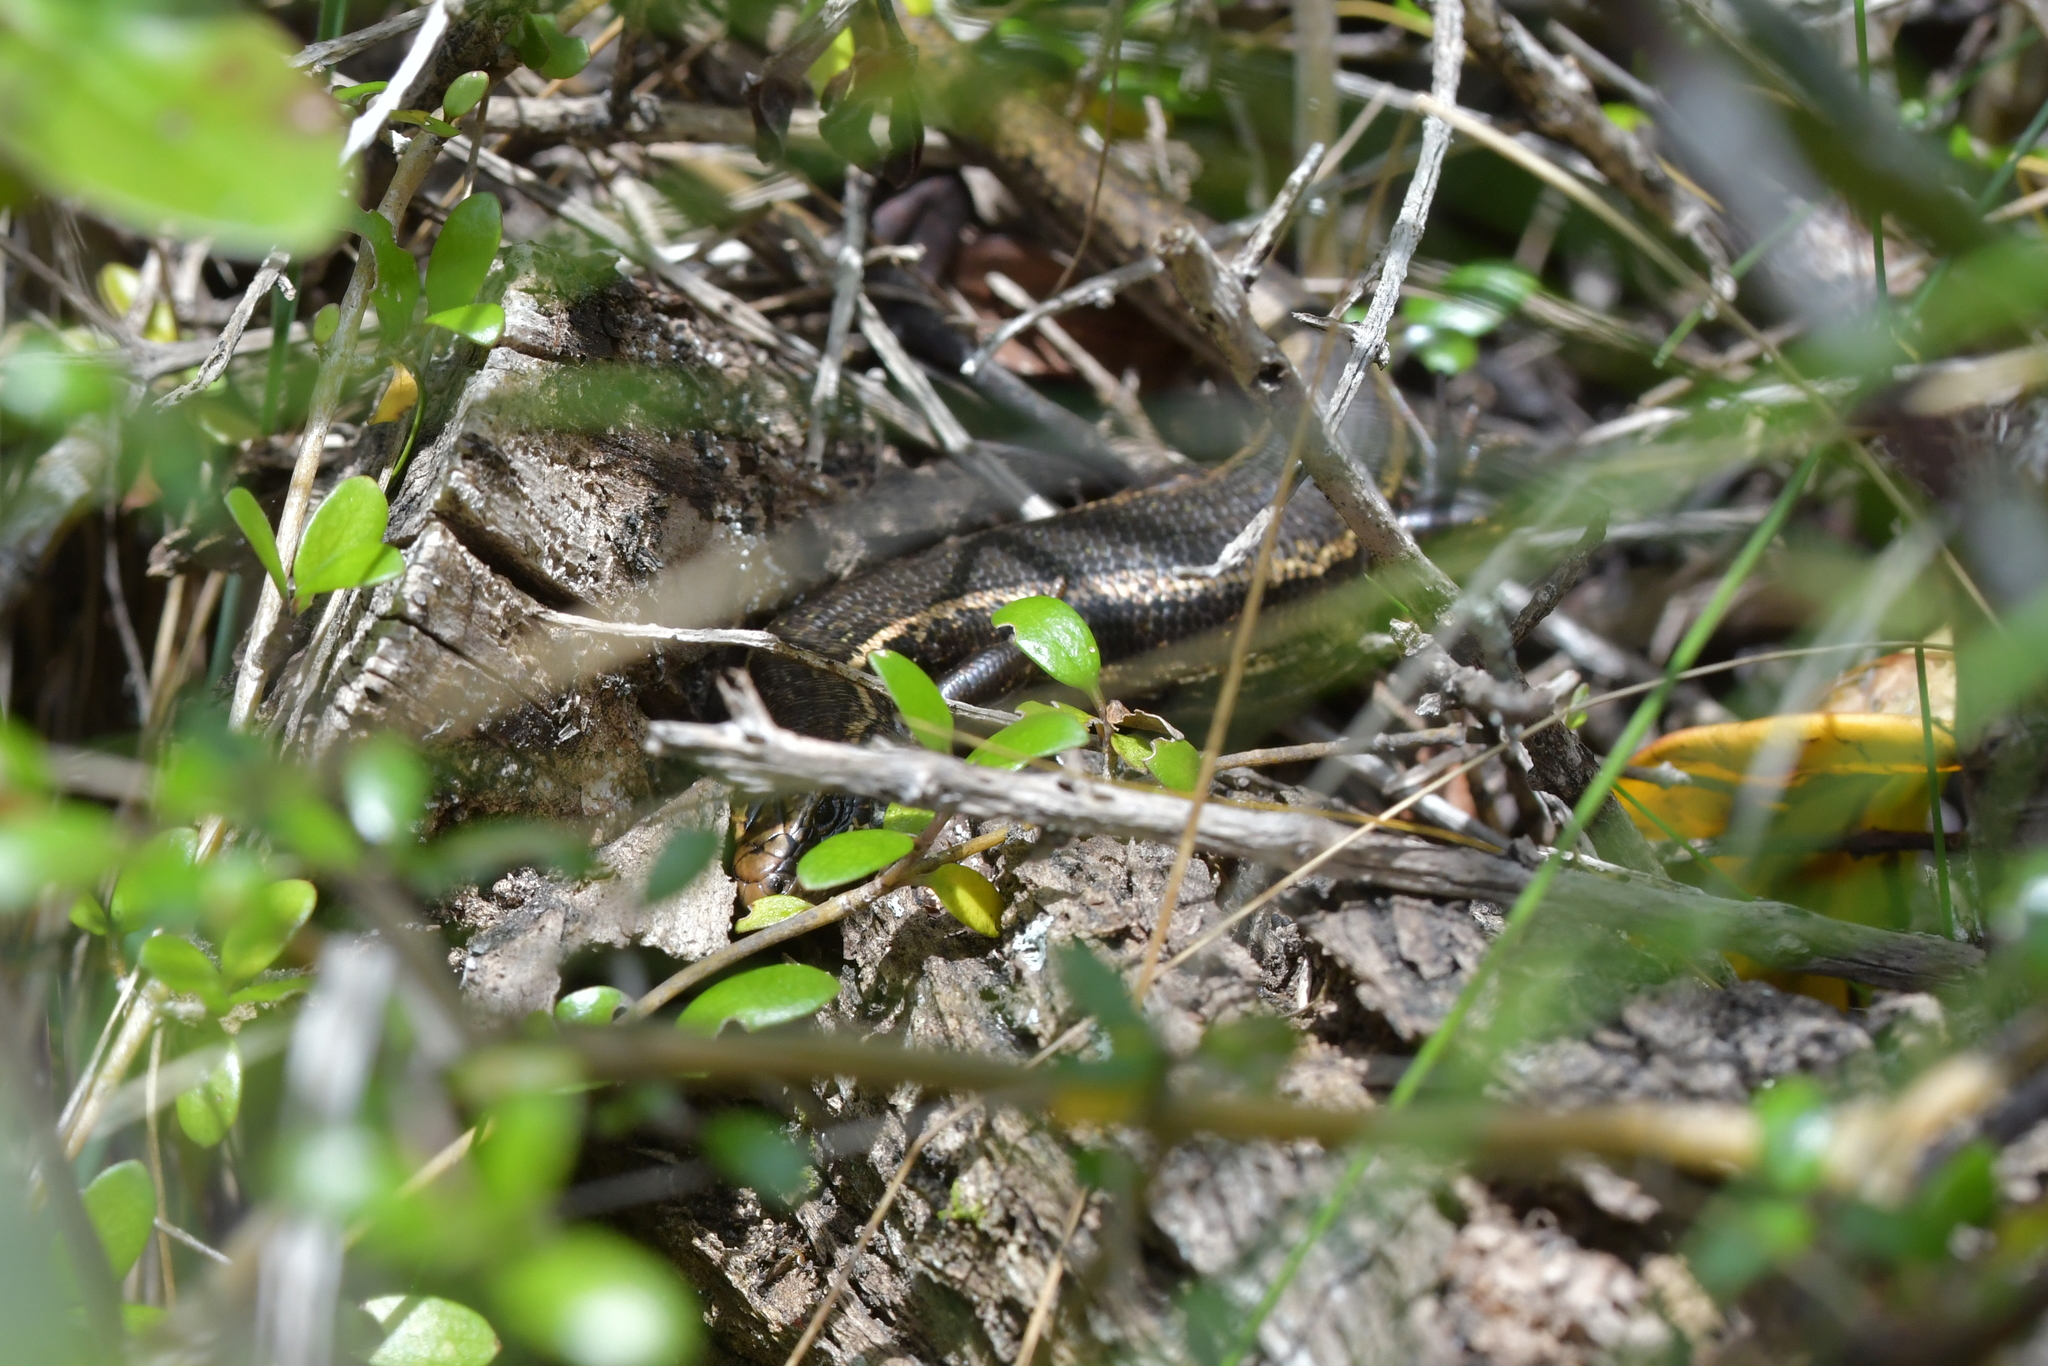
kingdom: Animalia
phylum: Chordata
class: Squamata
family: Scincidae
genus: Oligosoma
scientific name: Oligosoma kokowai
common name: Northern spotted skink
